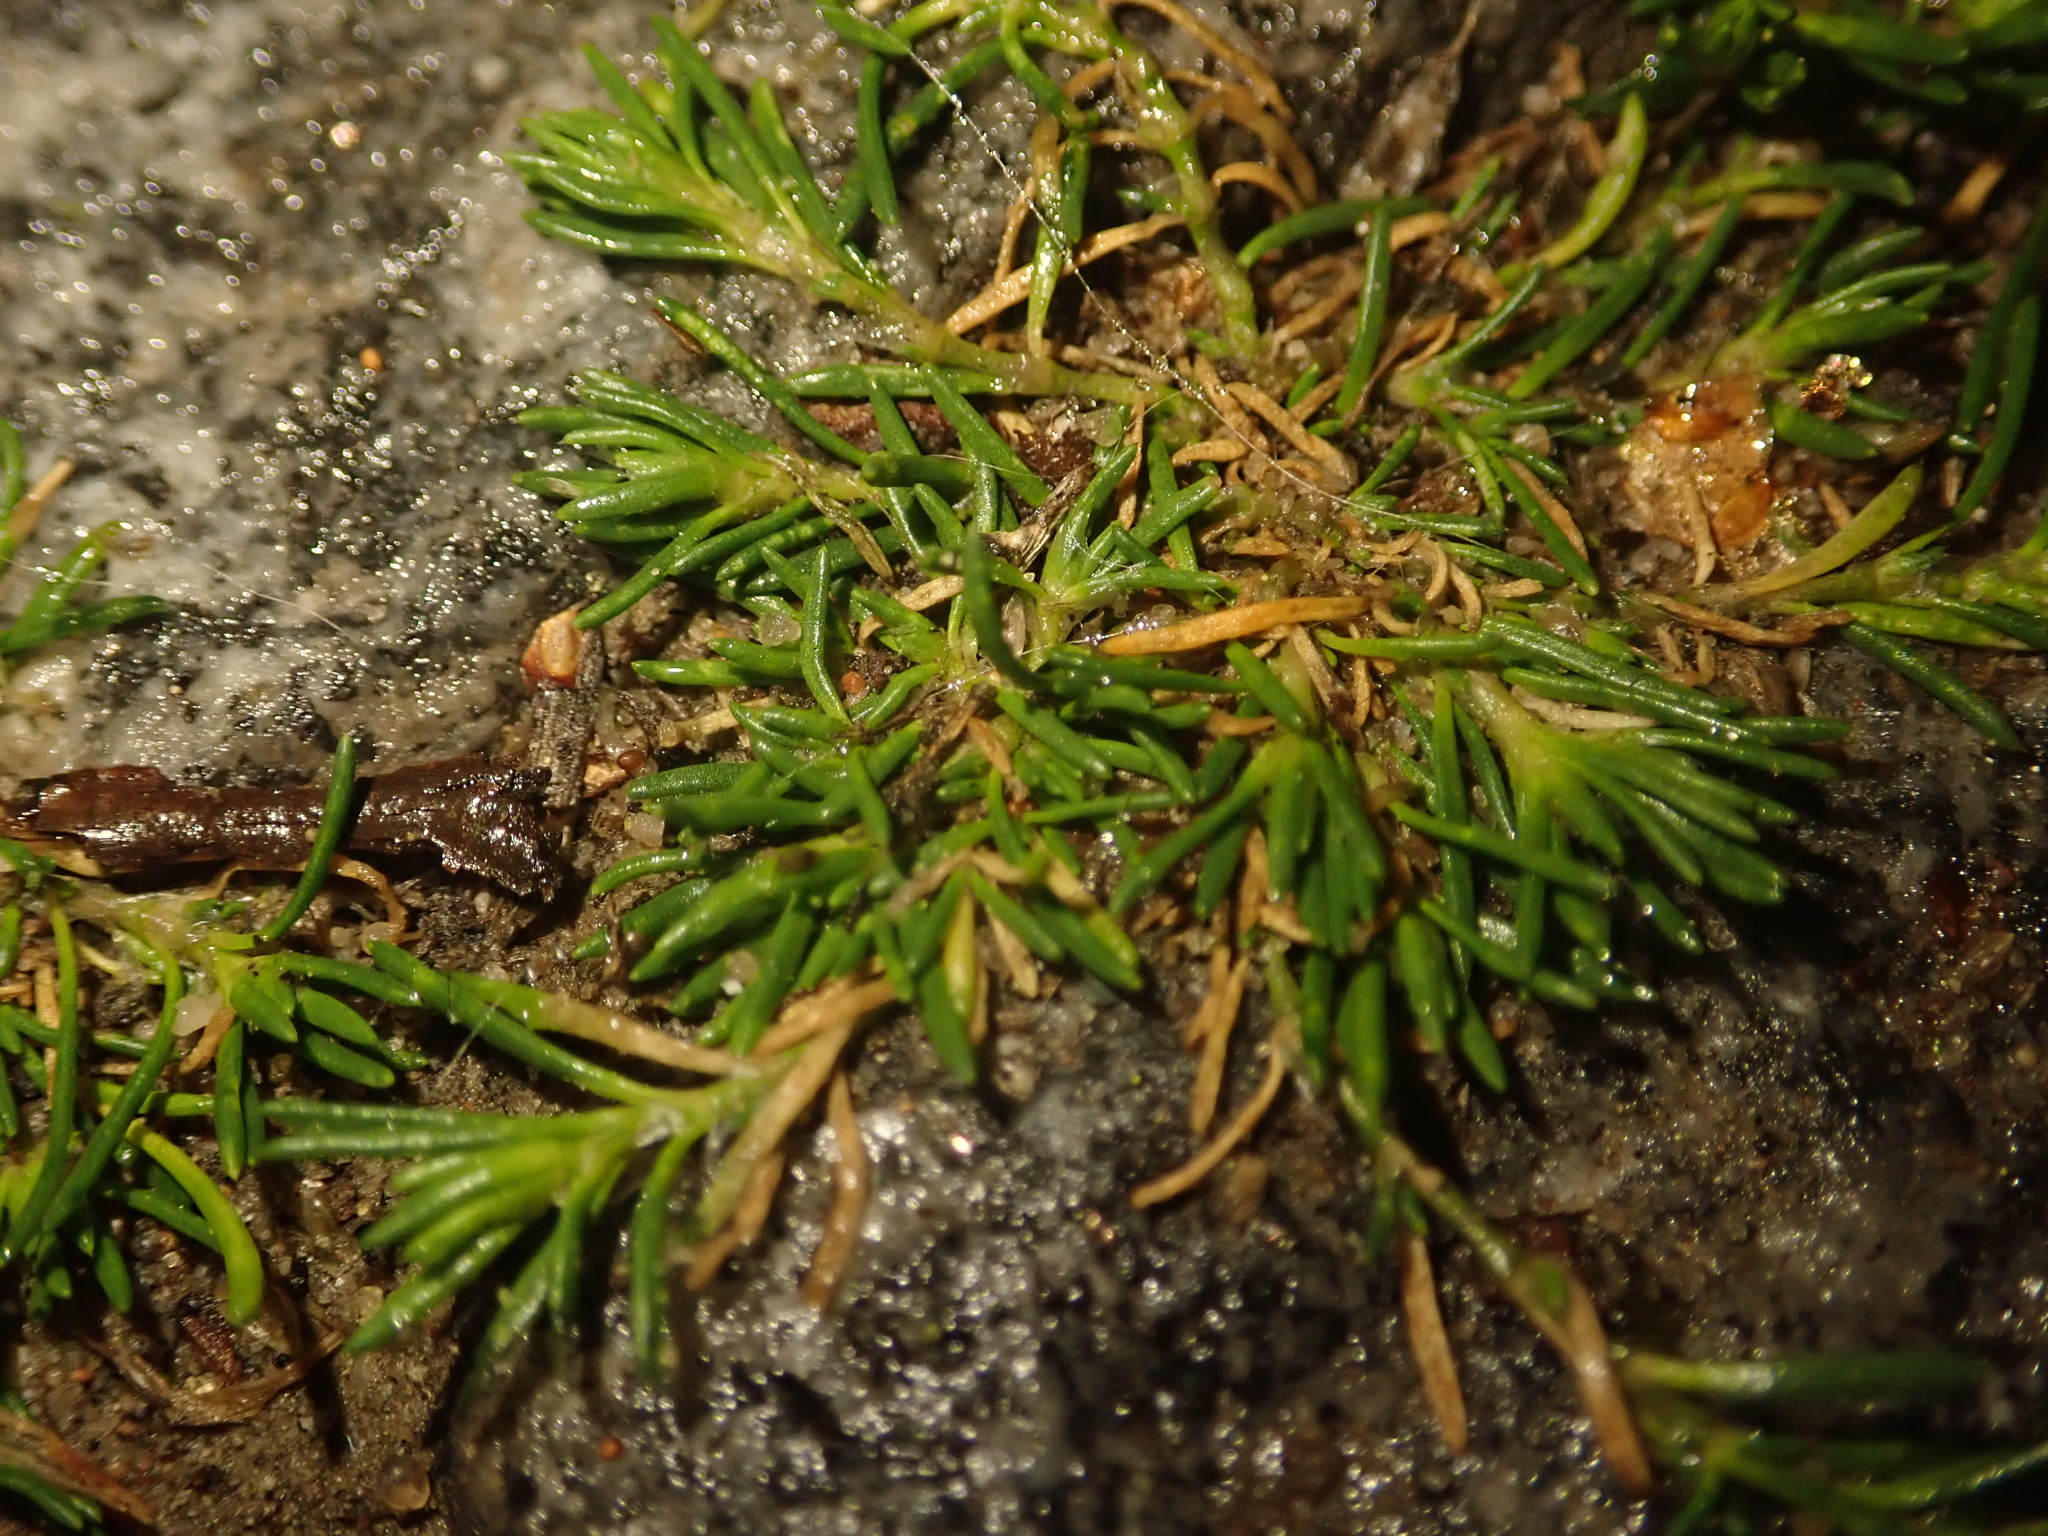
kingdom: Plantae
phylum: Tracheophyta
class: Magnoliopsida
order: Caryophyllales
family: Caryophyllaceae
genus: Sagina
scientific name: Sagina procumbens
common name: Procumbent pearlwort
